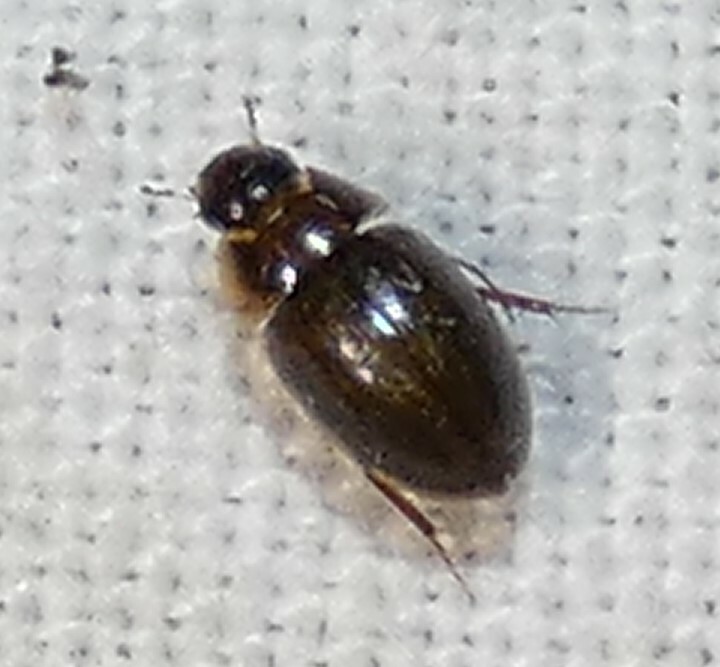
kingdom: Animalia
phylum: Arthropoda
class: Insecta
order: Coleoptera
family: Hydrophilidae
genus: Enochrus
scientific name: Enochrus
